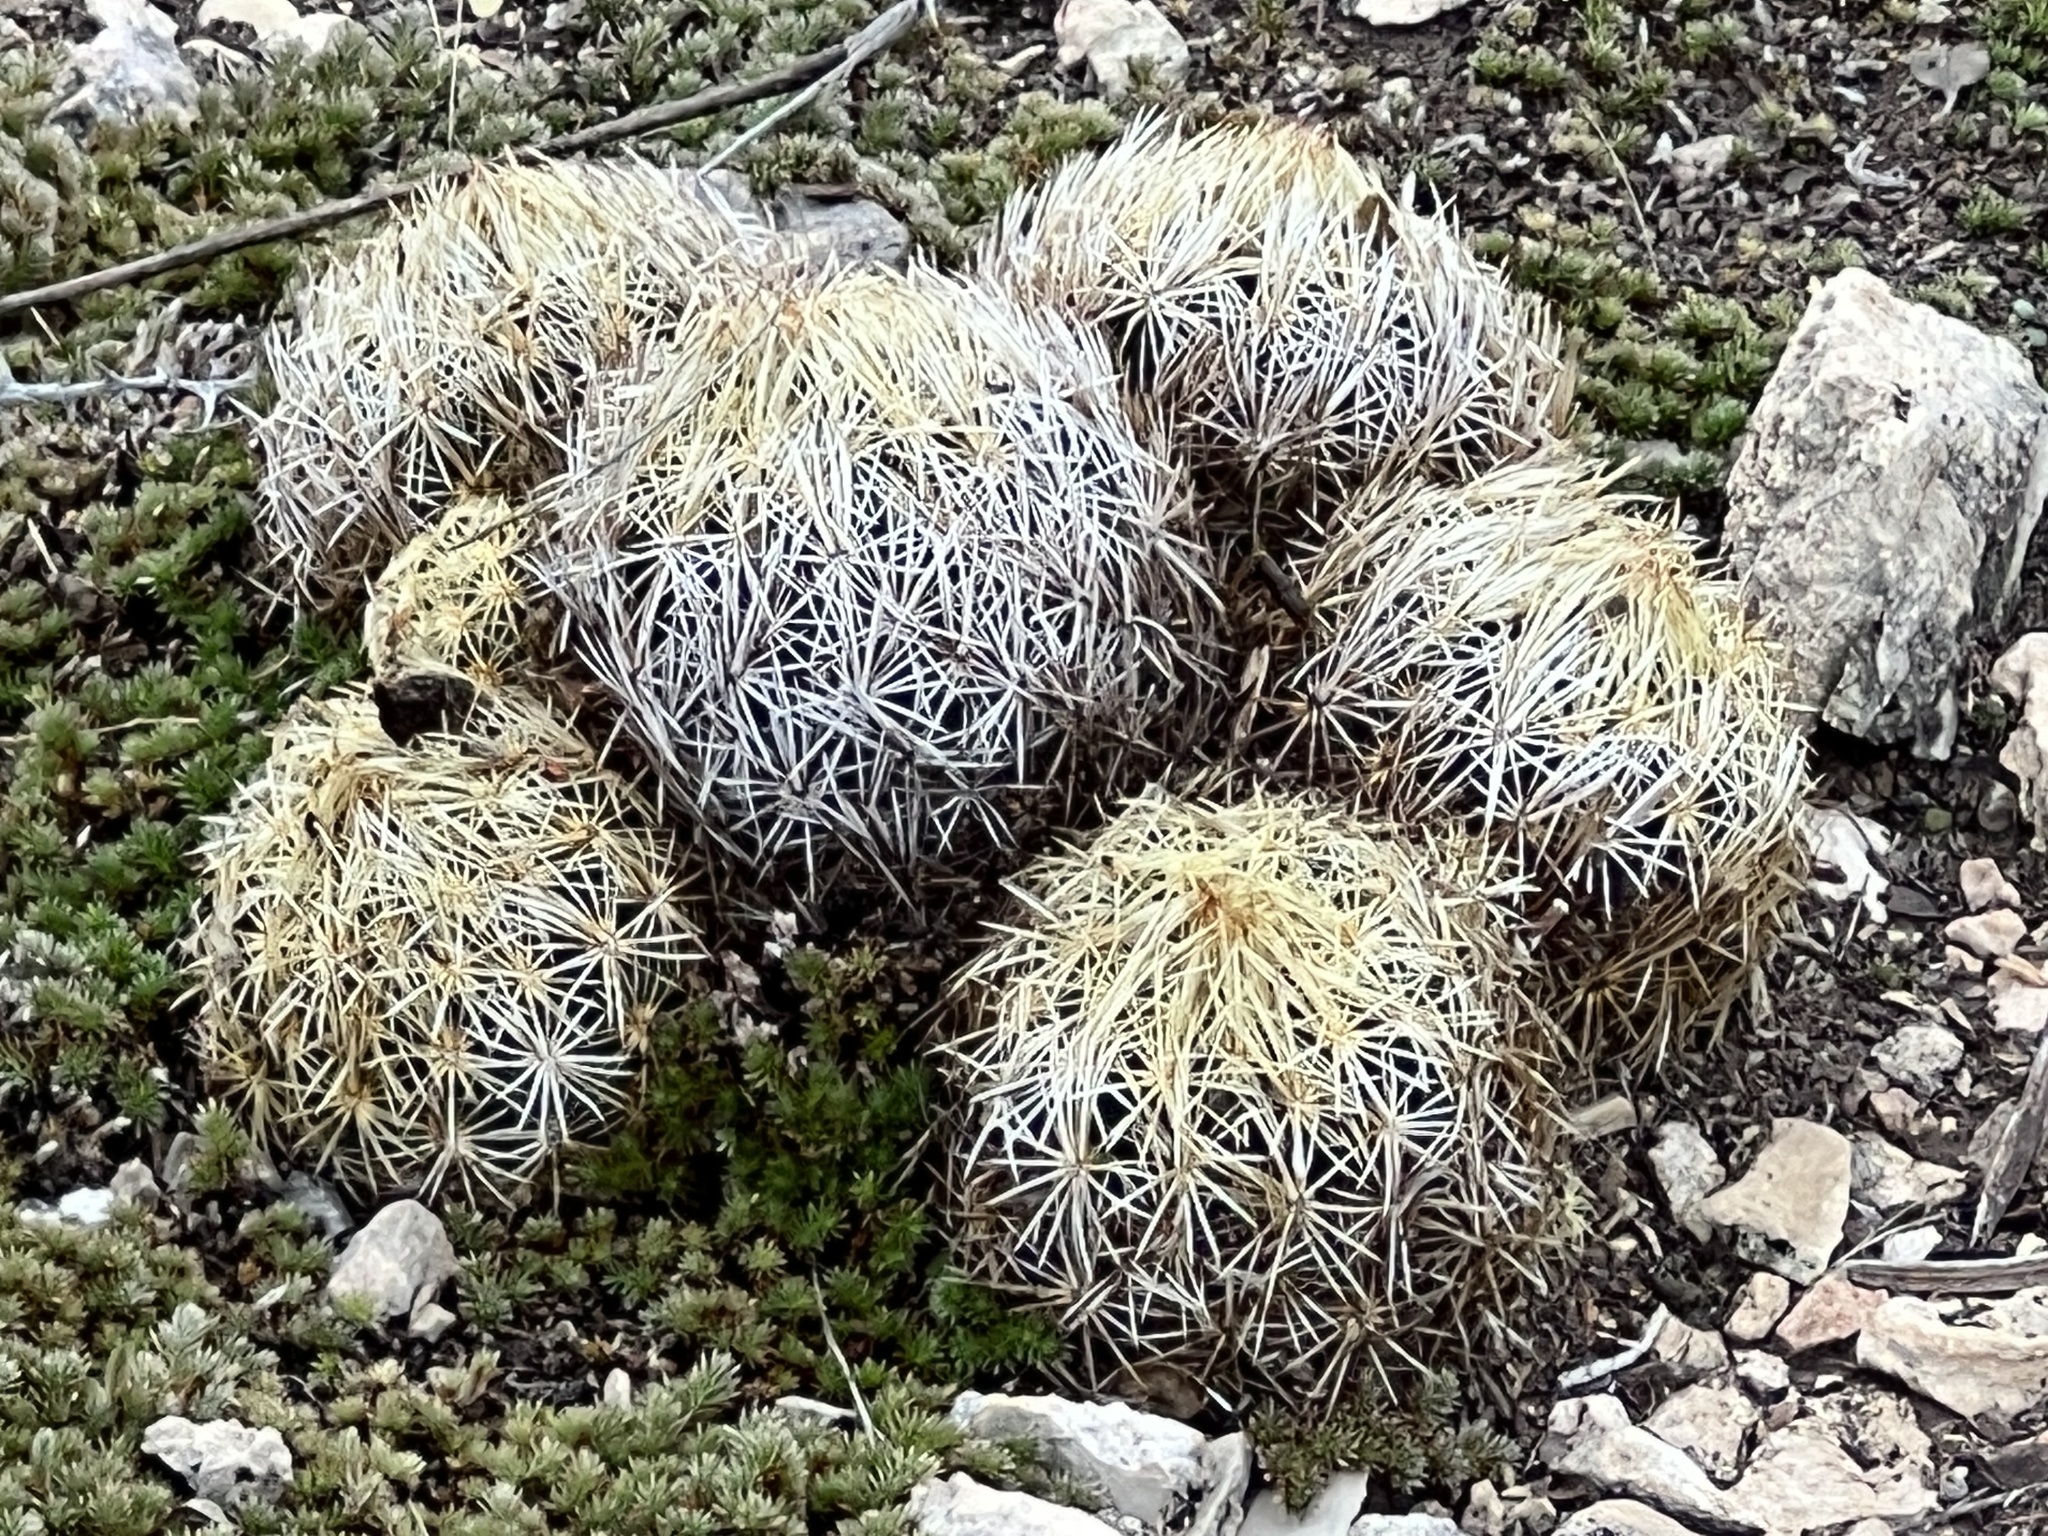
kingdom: Plantae
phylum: Tracheophyta
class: Magnoliopsida
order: Caryophyllales
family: Cactaceae
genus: Coryphantha
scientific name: Coryphantha echinus
